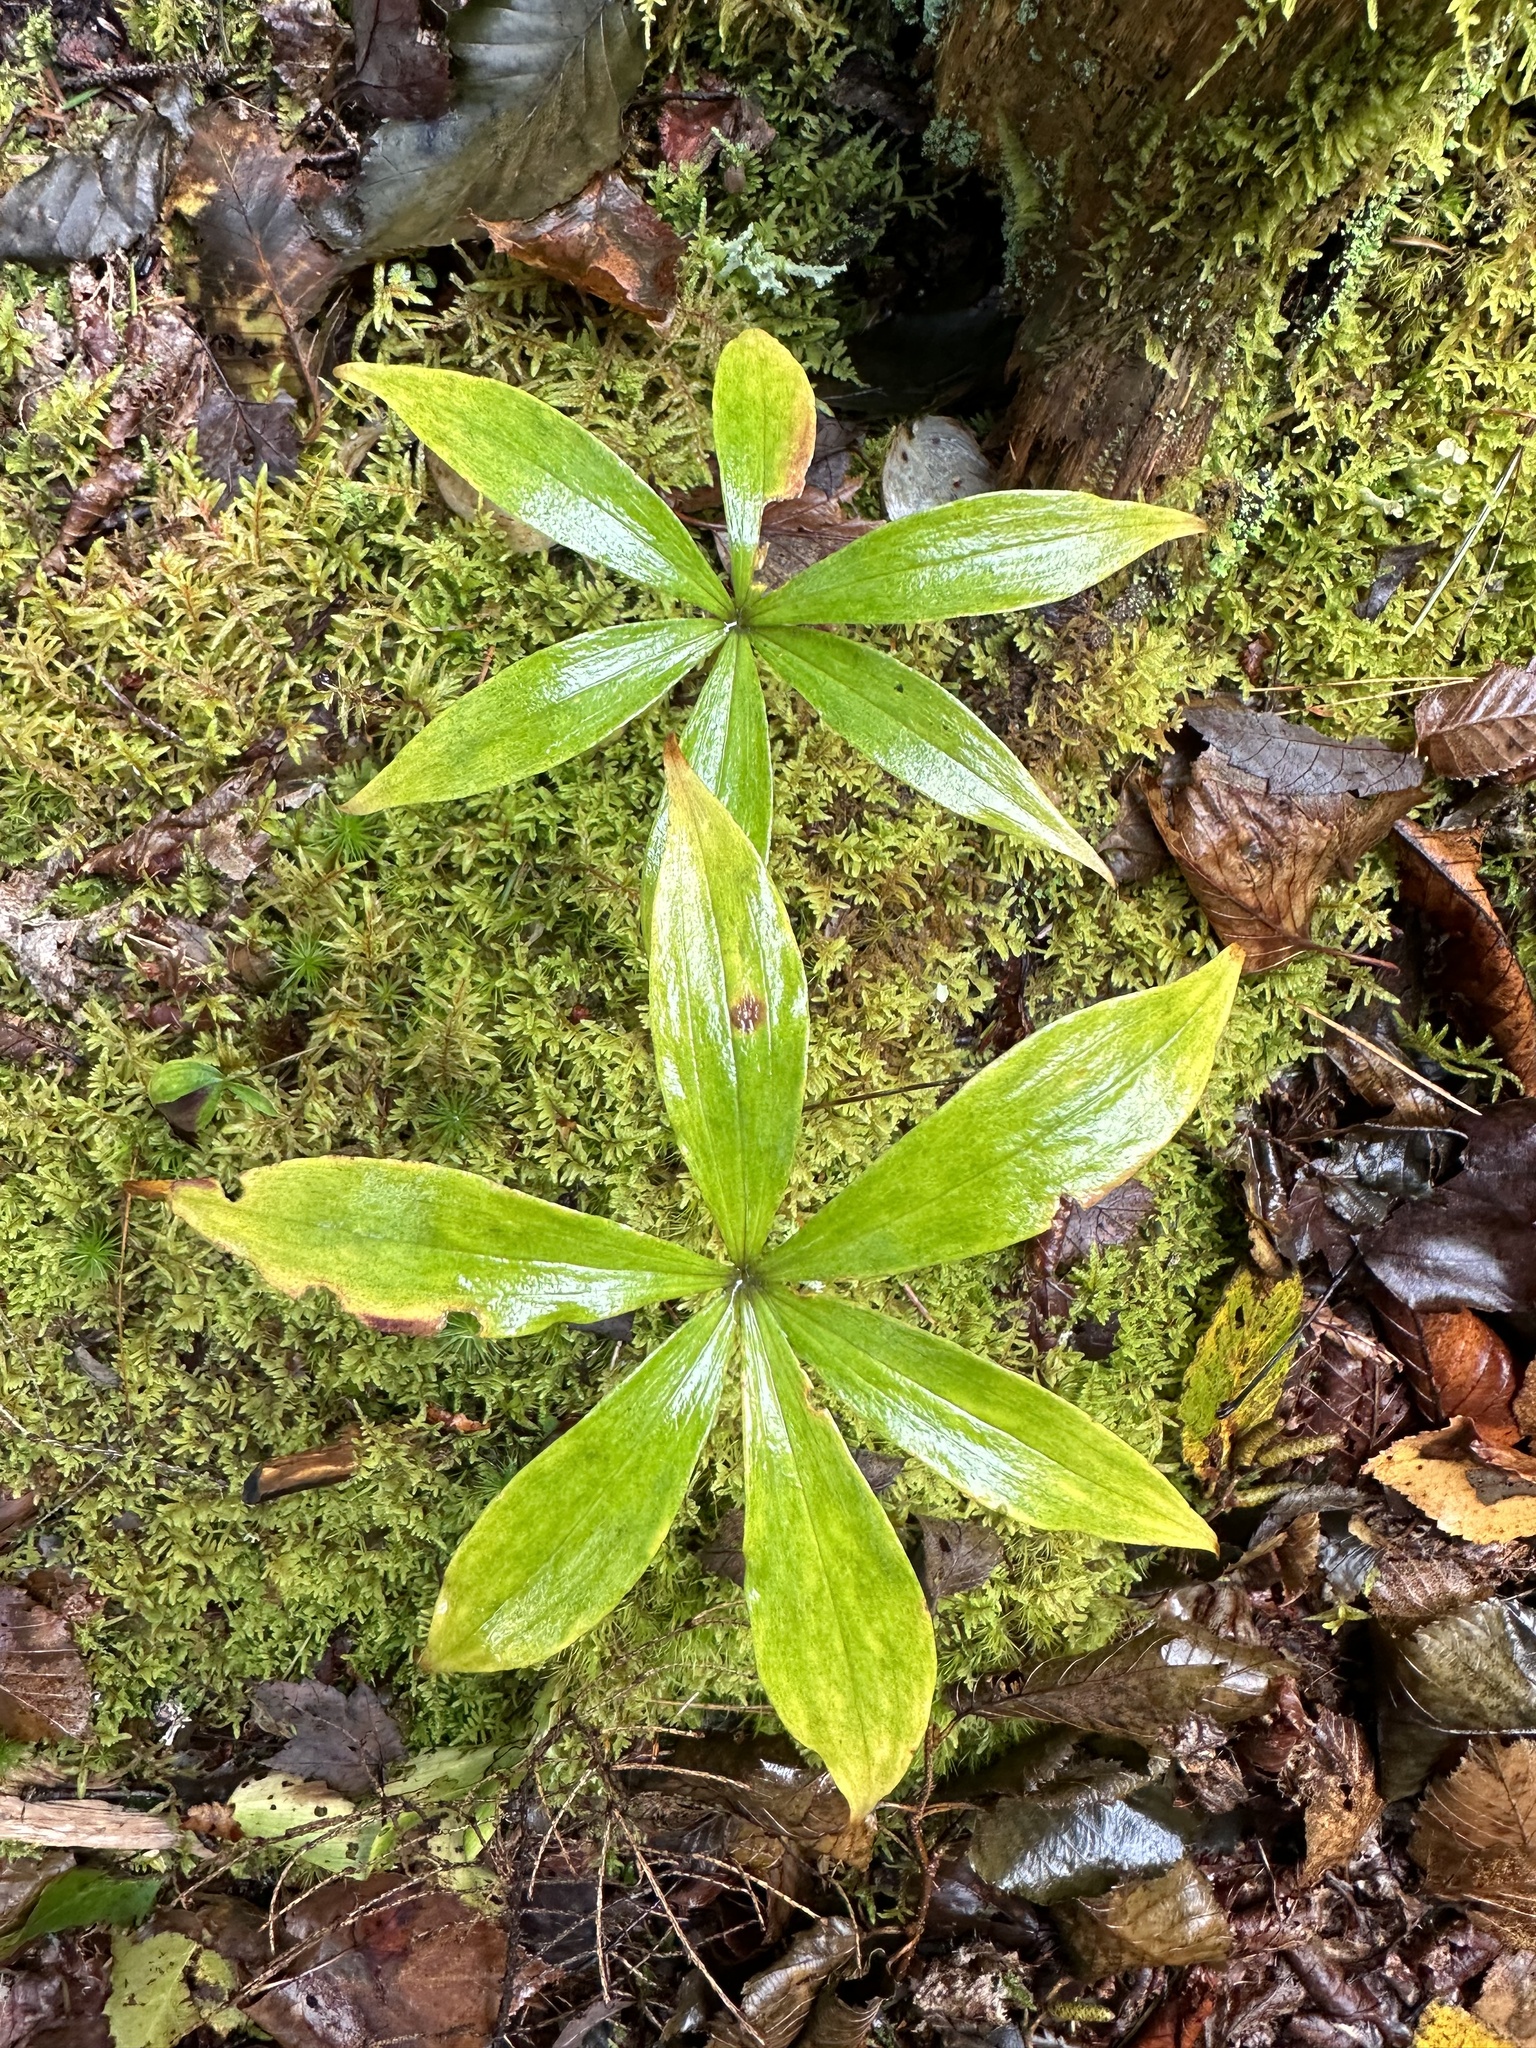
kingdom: Plantae
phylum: Tracheophyta
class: Liliopsida
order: Liliales
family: Liliaceae
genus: Medeola
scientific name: Medeola virginiana
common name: Indian cucumber-root
